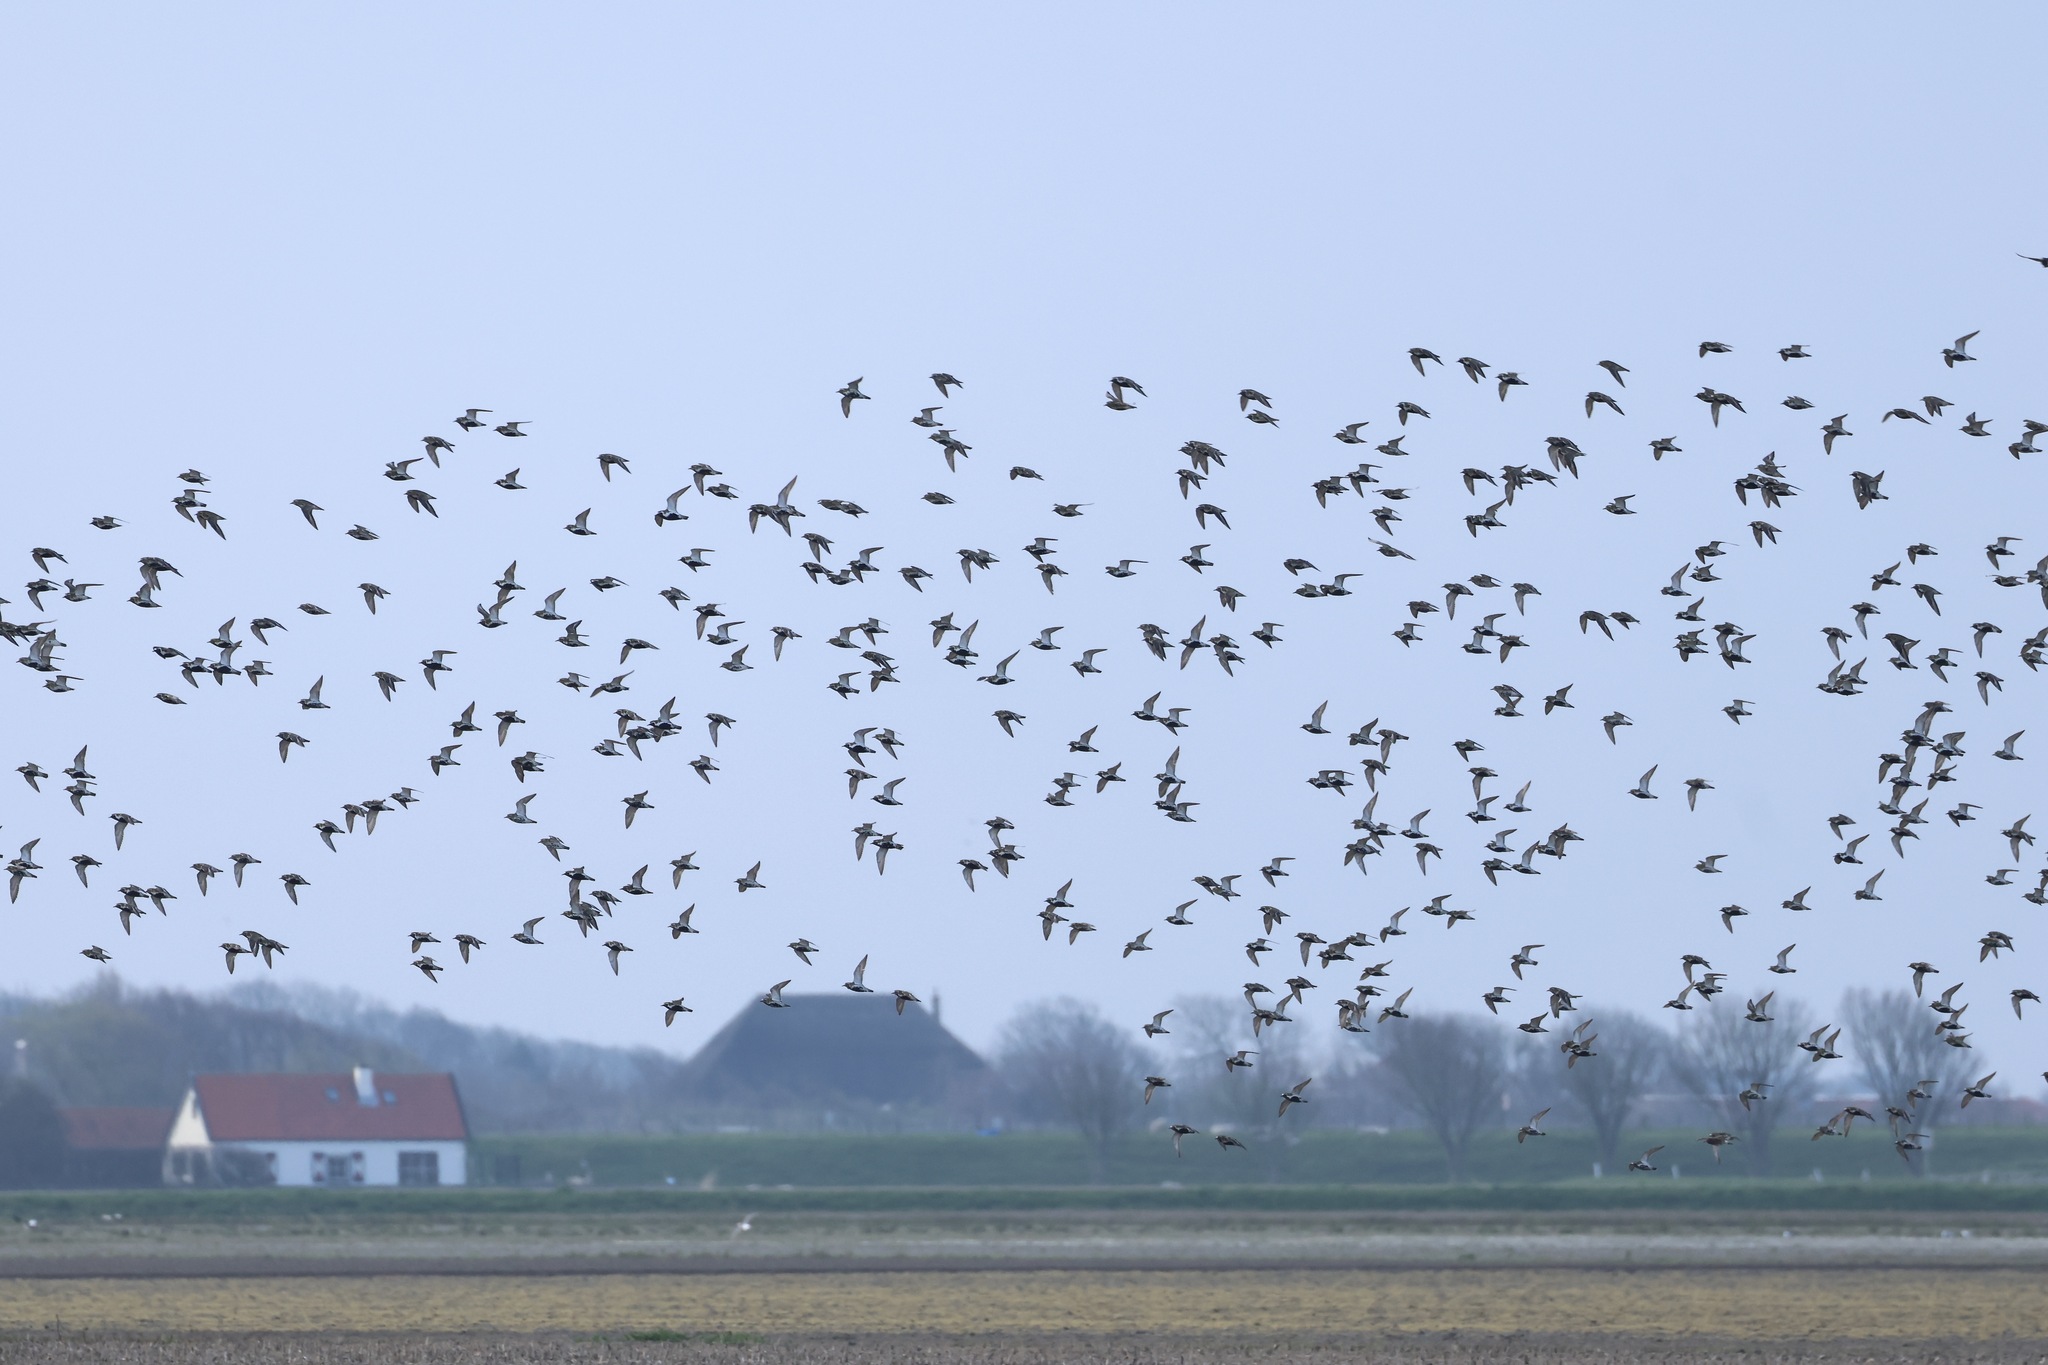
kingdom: Animalia
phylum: Chordata
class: Aves
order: Charadriiformes
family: Charadriidae
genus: Pluvialis
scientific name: Pluvialis apricaria
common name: European golden plover
